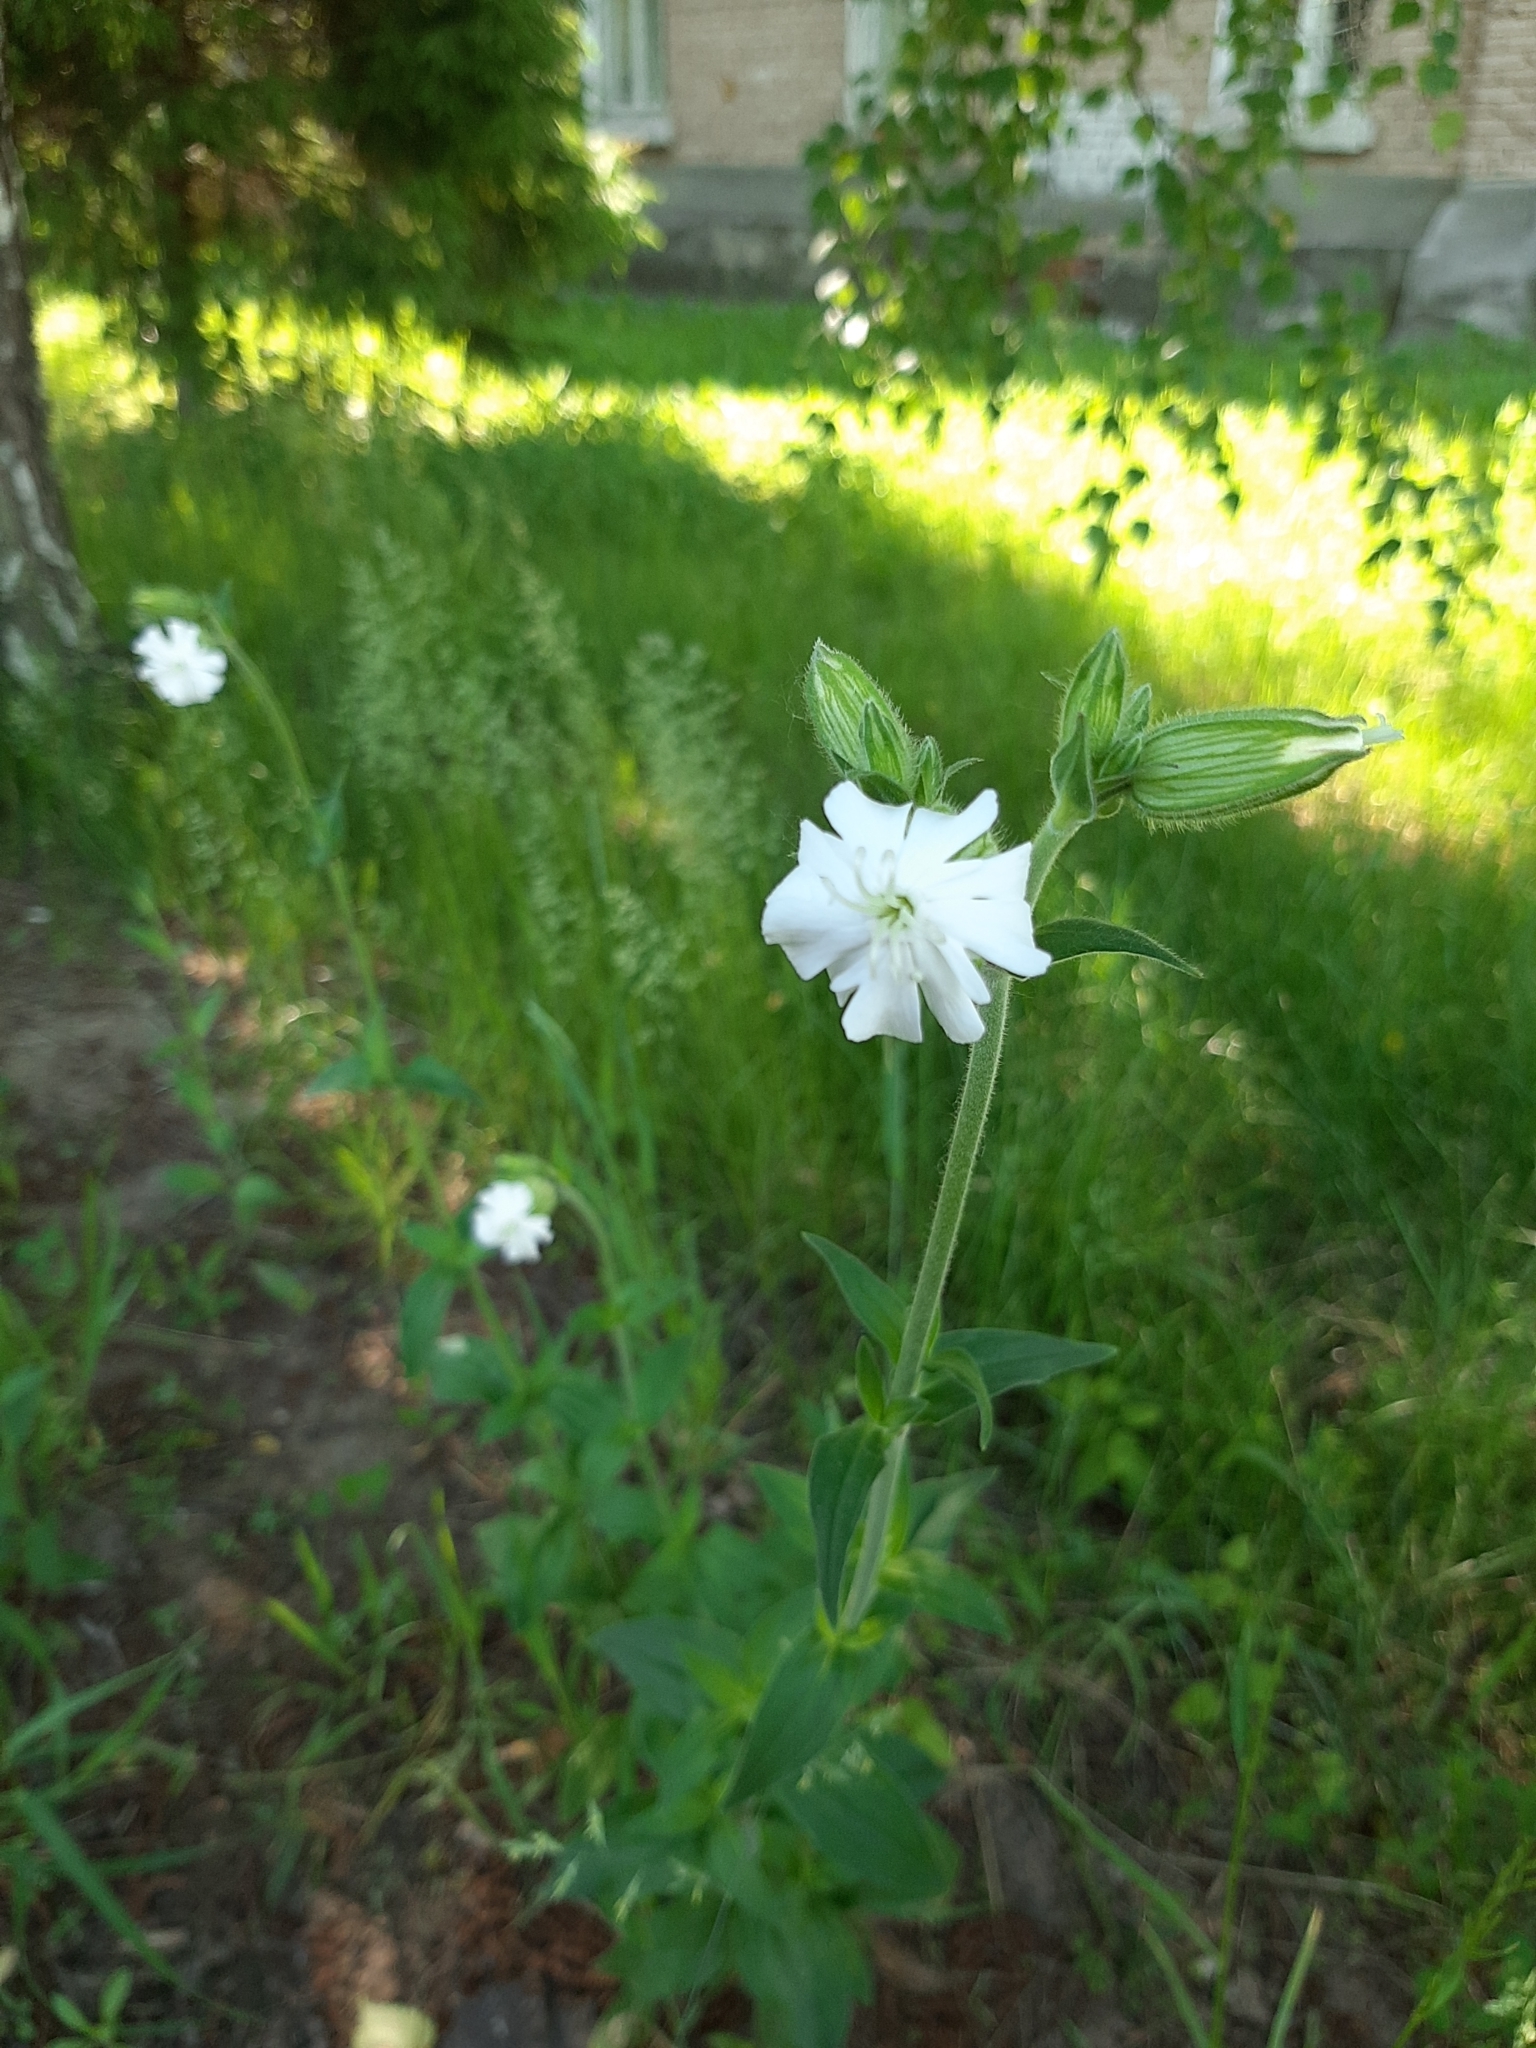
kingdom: Plantae
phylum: Tracheophyta
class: Magnoliopsida
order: Caryophyllales
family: Caryophyllaceae
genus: Silene
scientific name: Silene latifolia
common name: White campion
